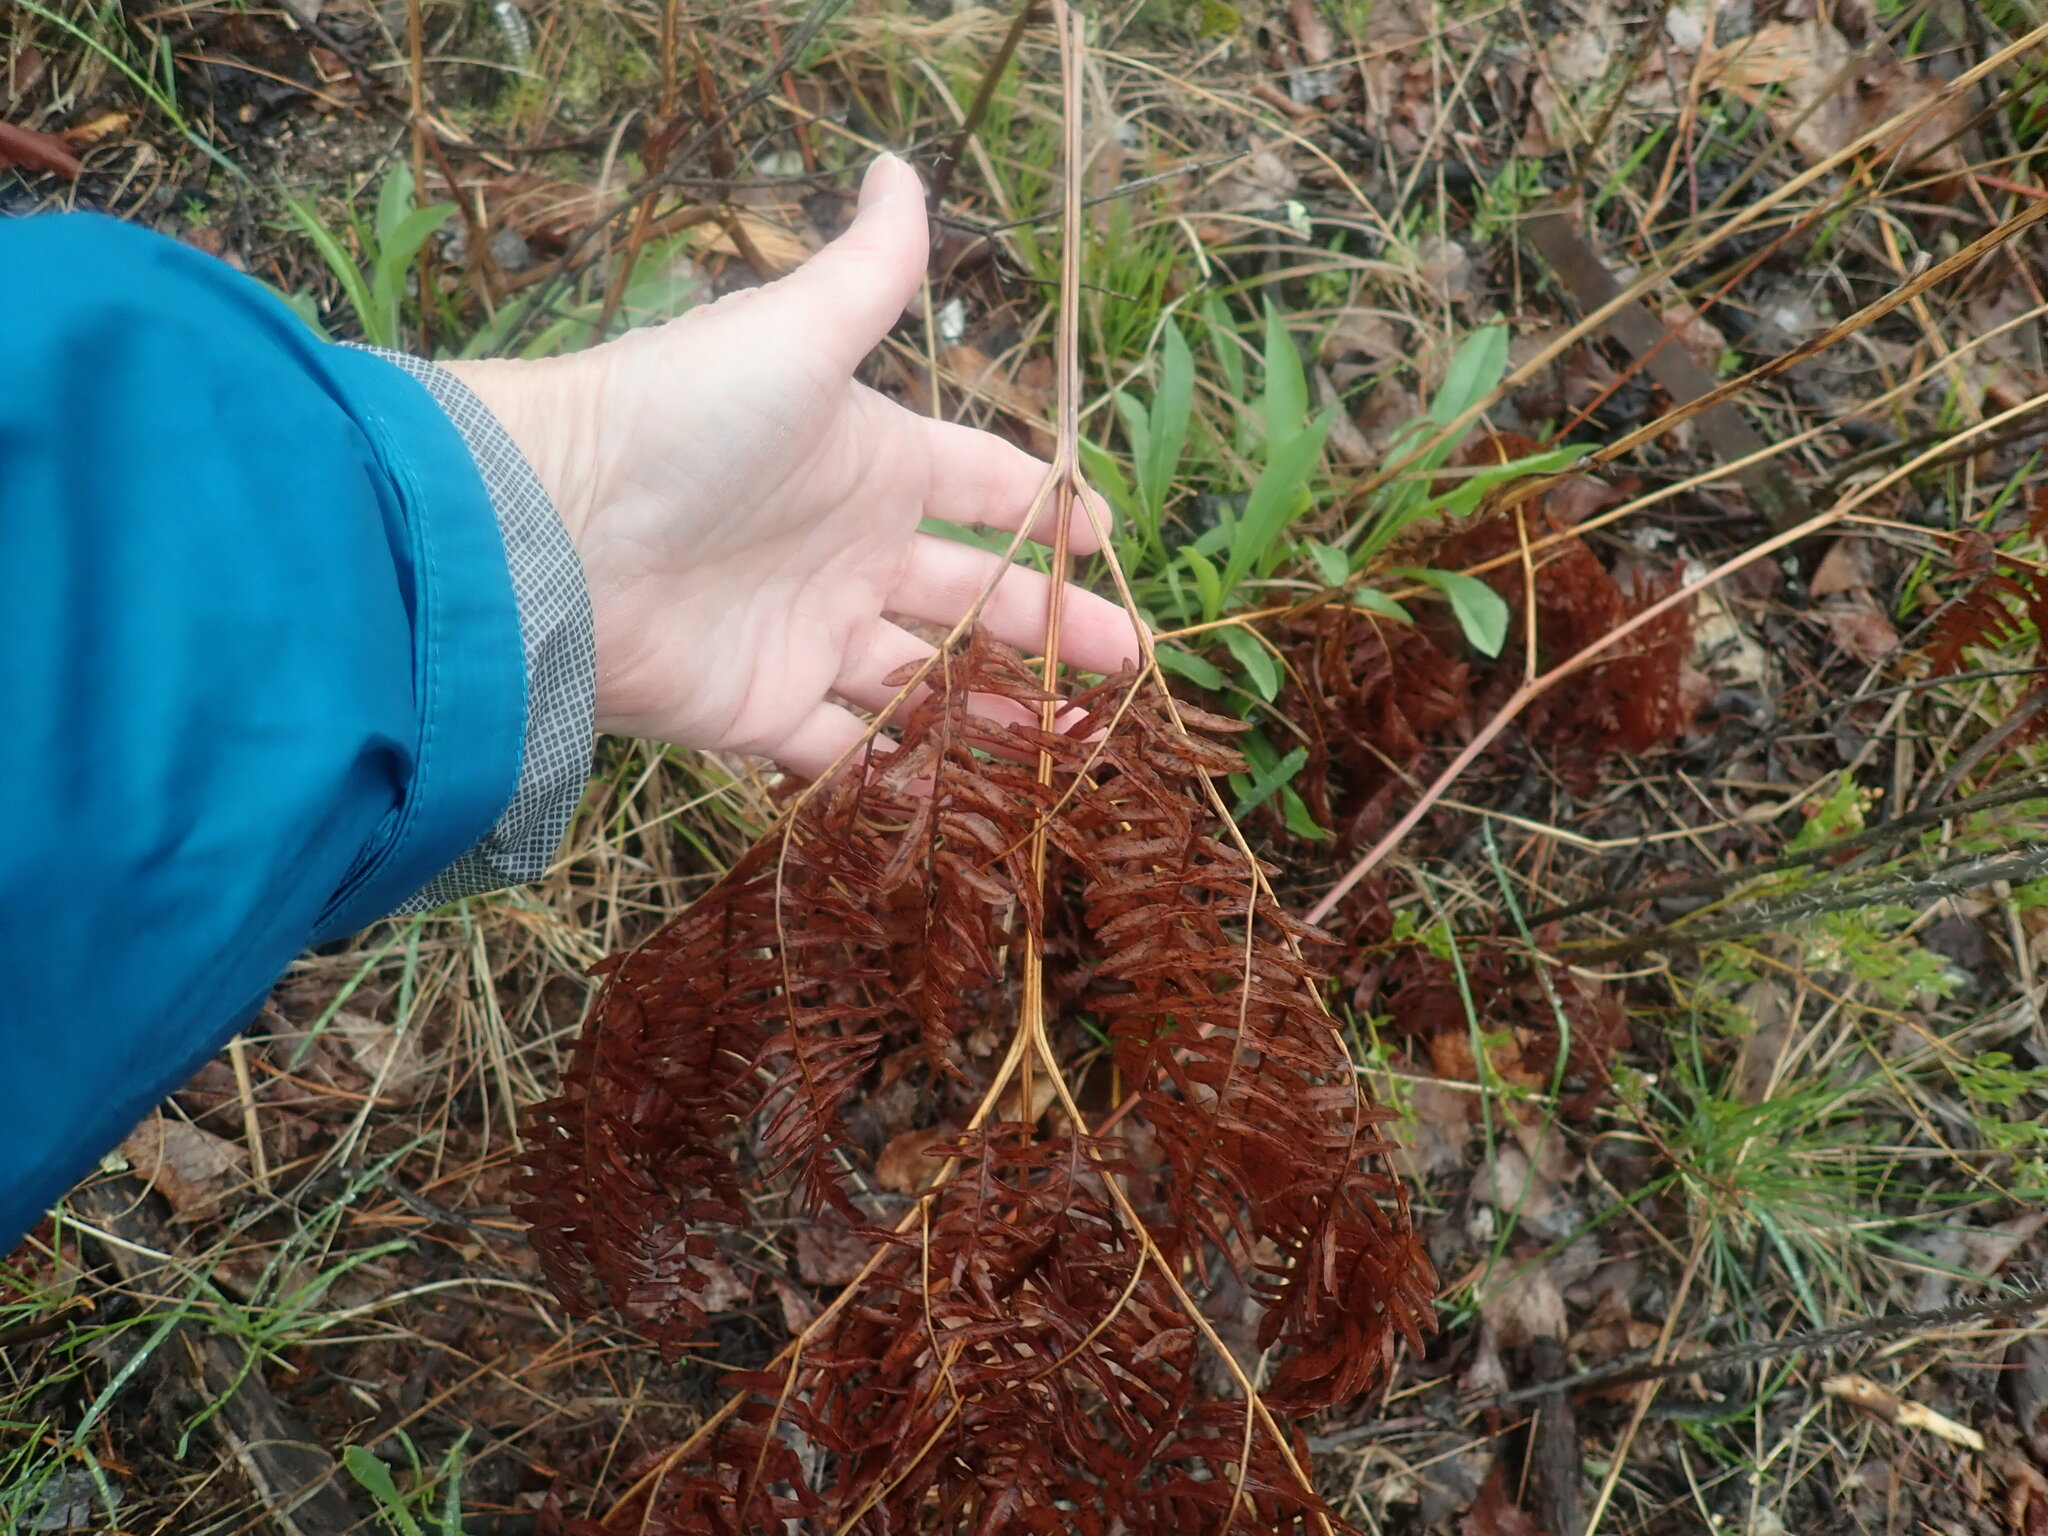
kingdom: Plantae
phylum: Tracheophyta
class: Polypodiopsida
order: Polypodiales
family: Dennstaedtiaceae
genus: Pteridium
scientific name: Pteridium aquilinum
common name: Bracken
